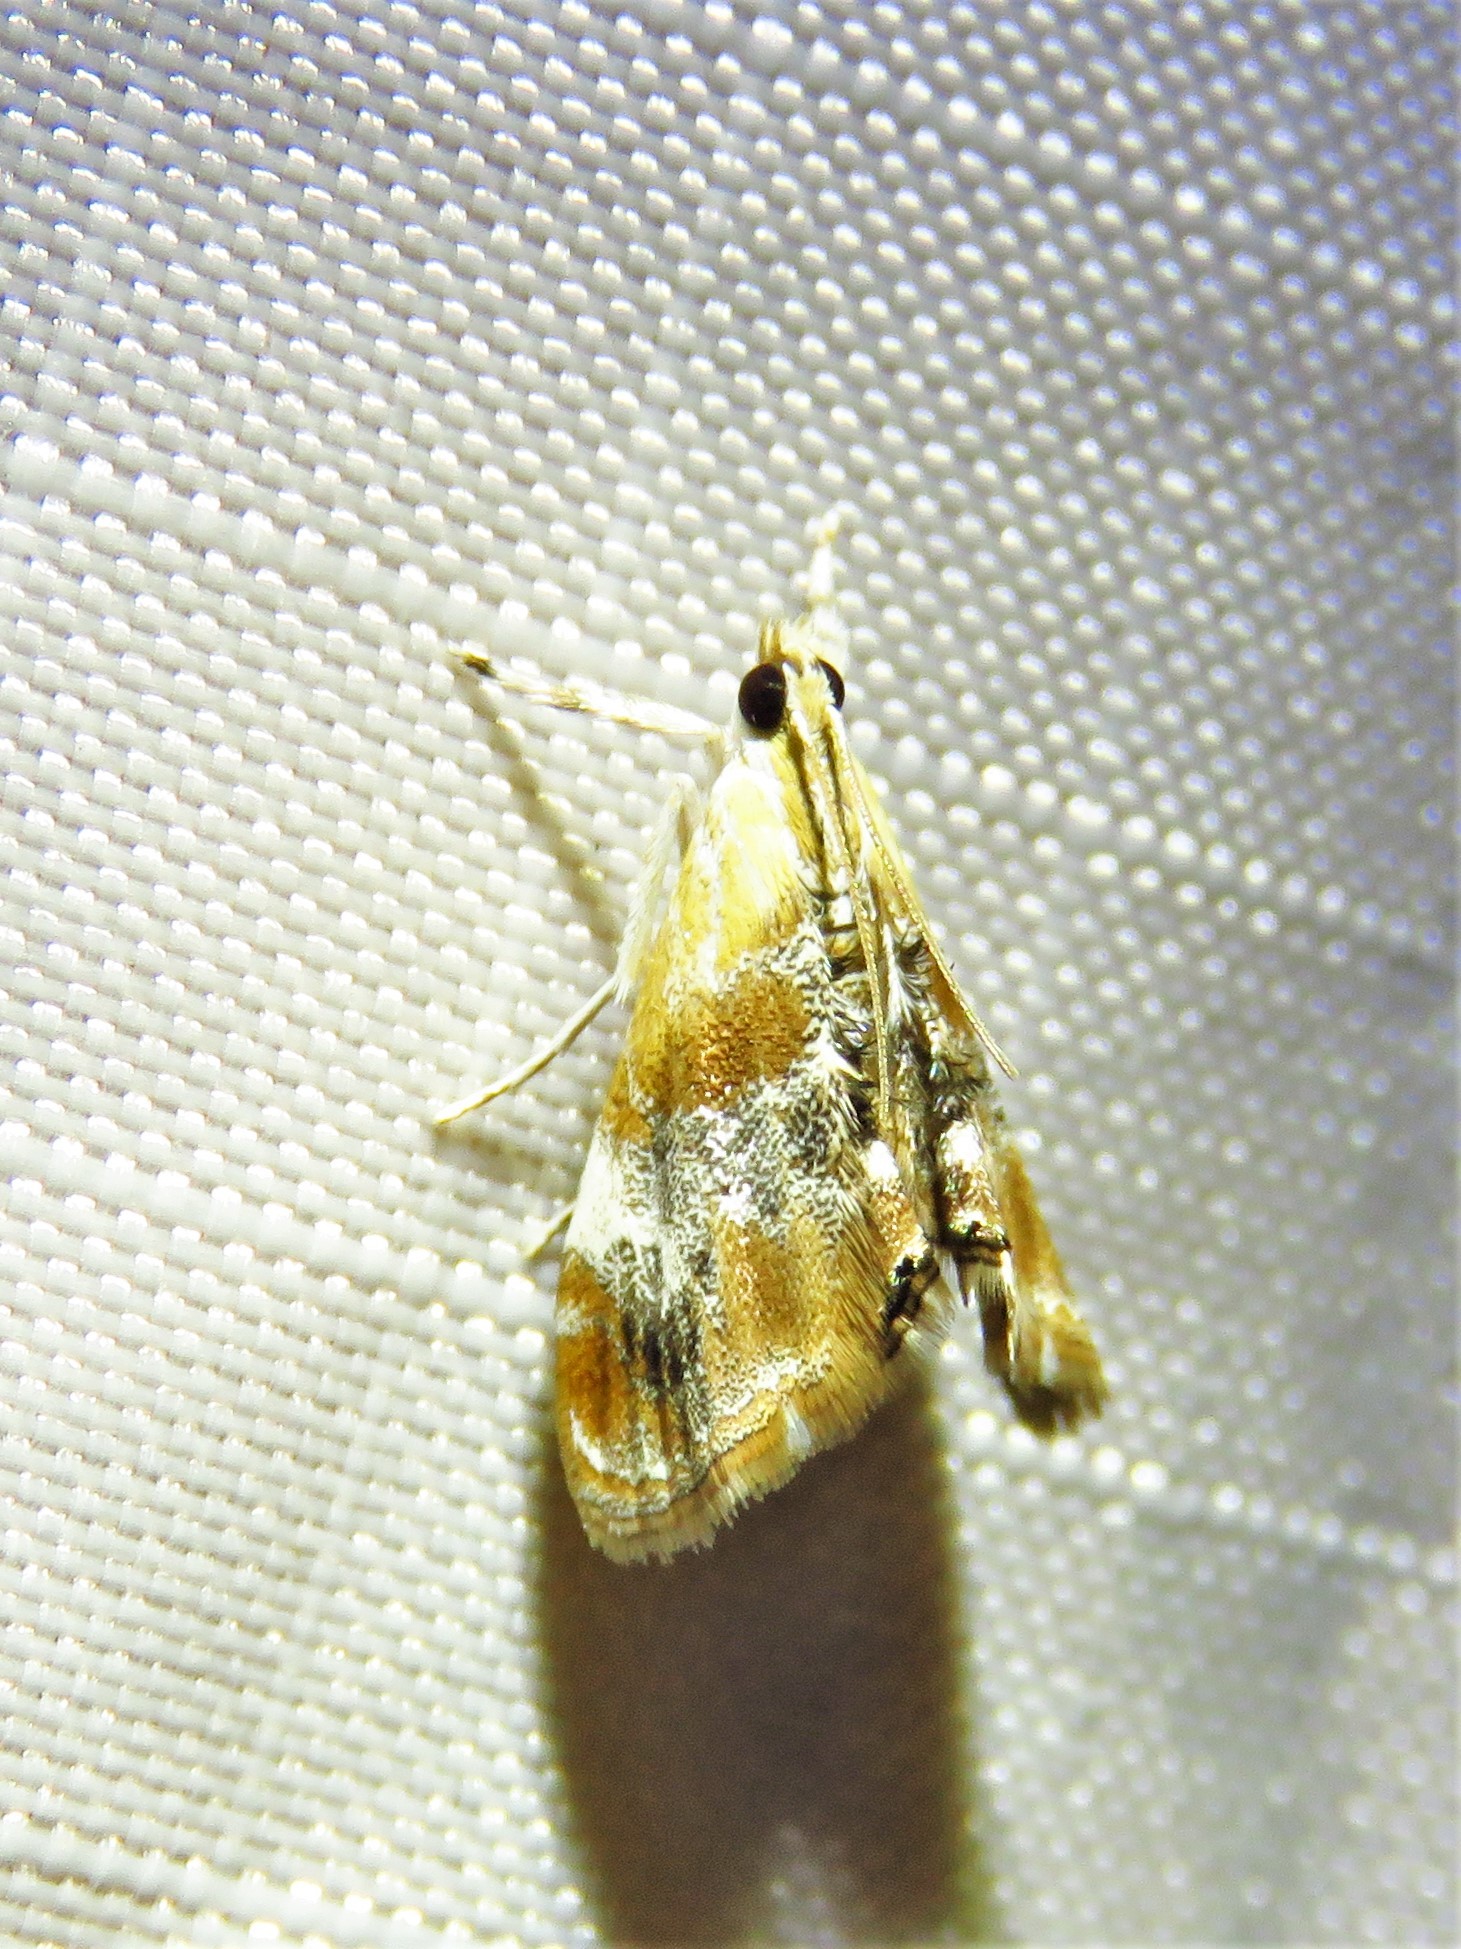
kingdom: Animalia
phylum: Arthropoda
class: Insecta
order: Lepidoptera
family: Crambidae
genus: Dicymolomia
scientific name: Dicymolomia julianalis
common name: Julia's dicymolomia moth
